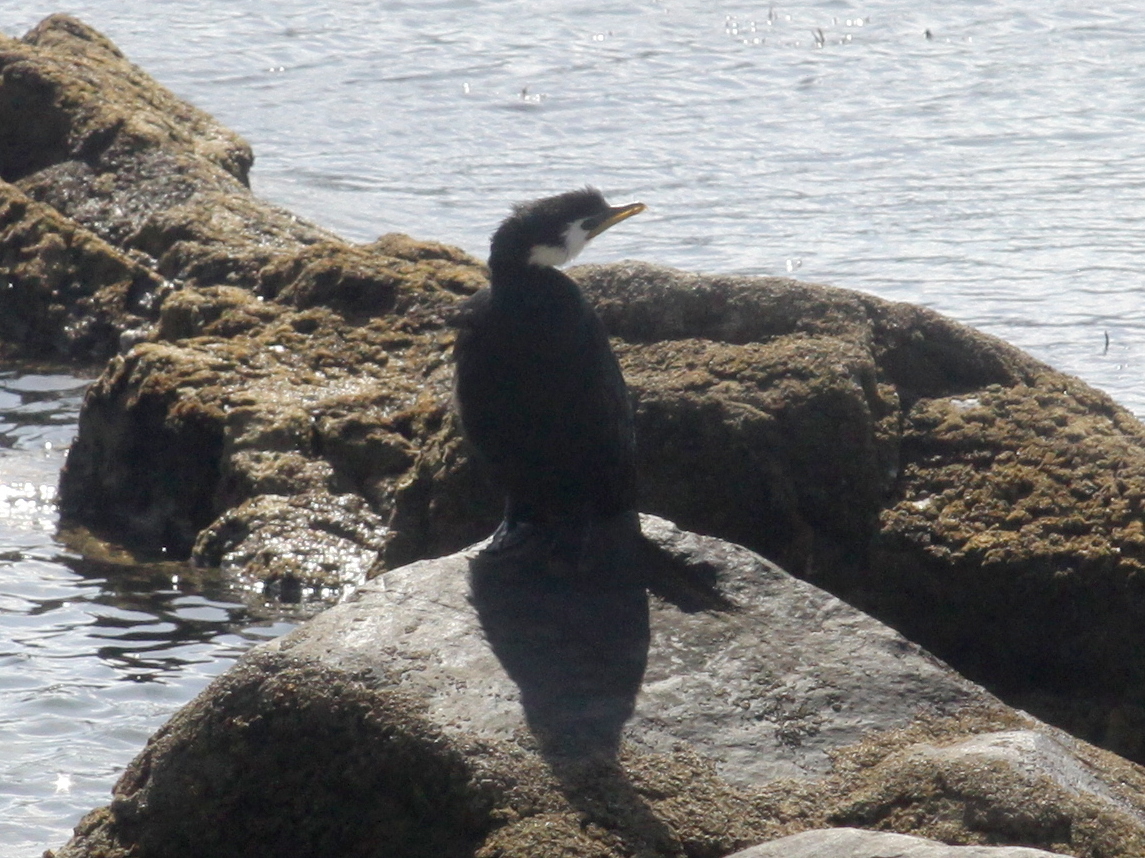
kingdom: Animalia
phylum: Chordata
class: Aves
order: Suliformes
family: Phalacrocoracidae
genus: Microcarbo
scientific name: Microcarbo melanoleucos
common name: Little pied cormorant
